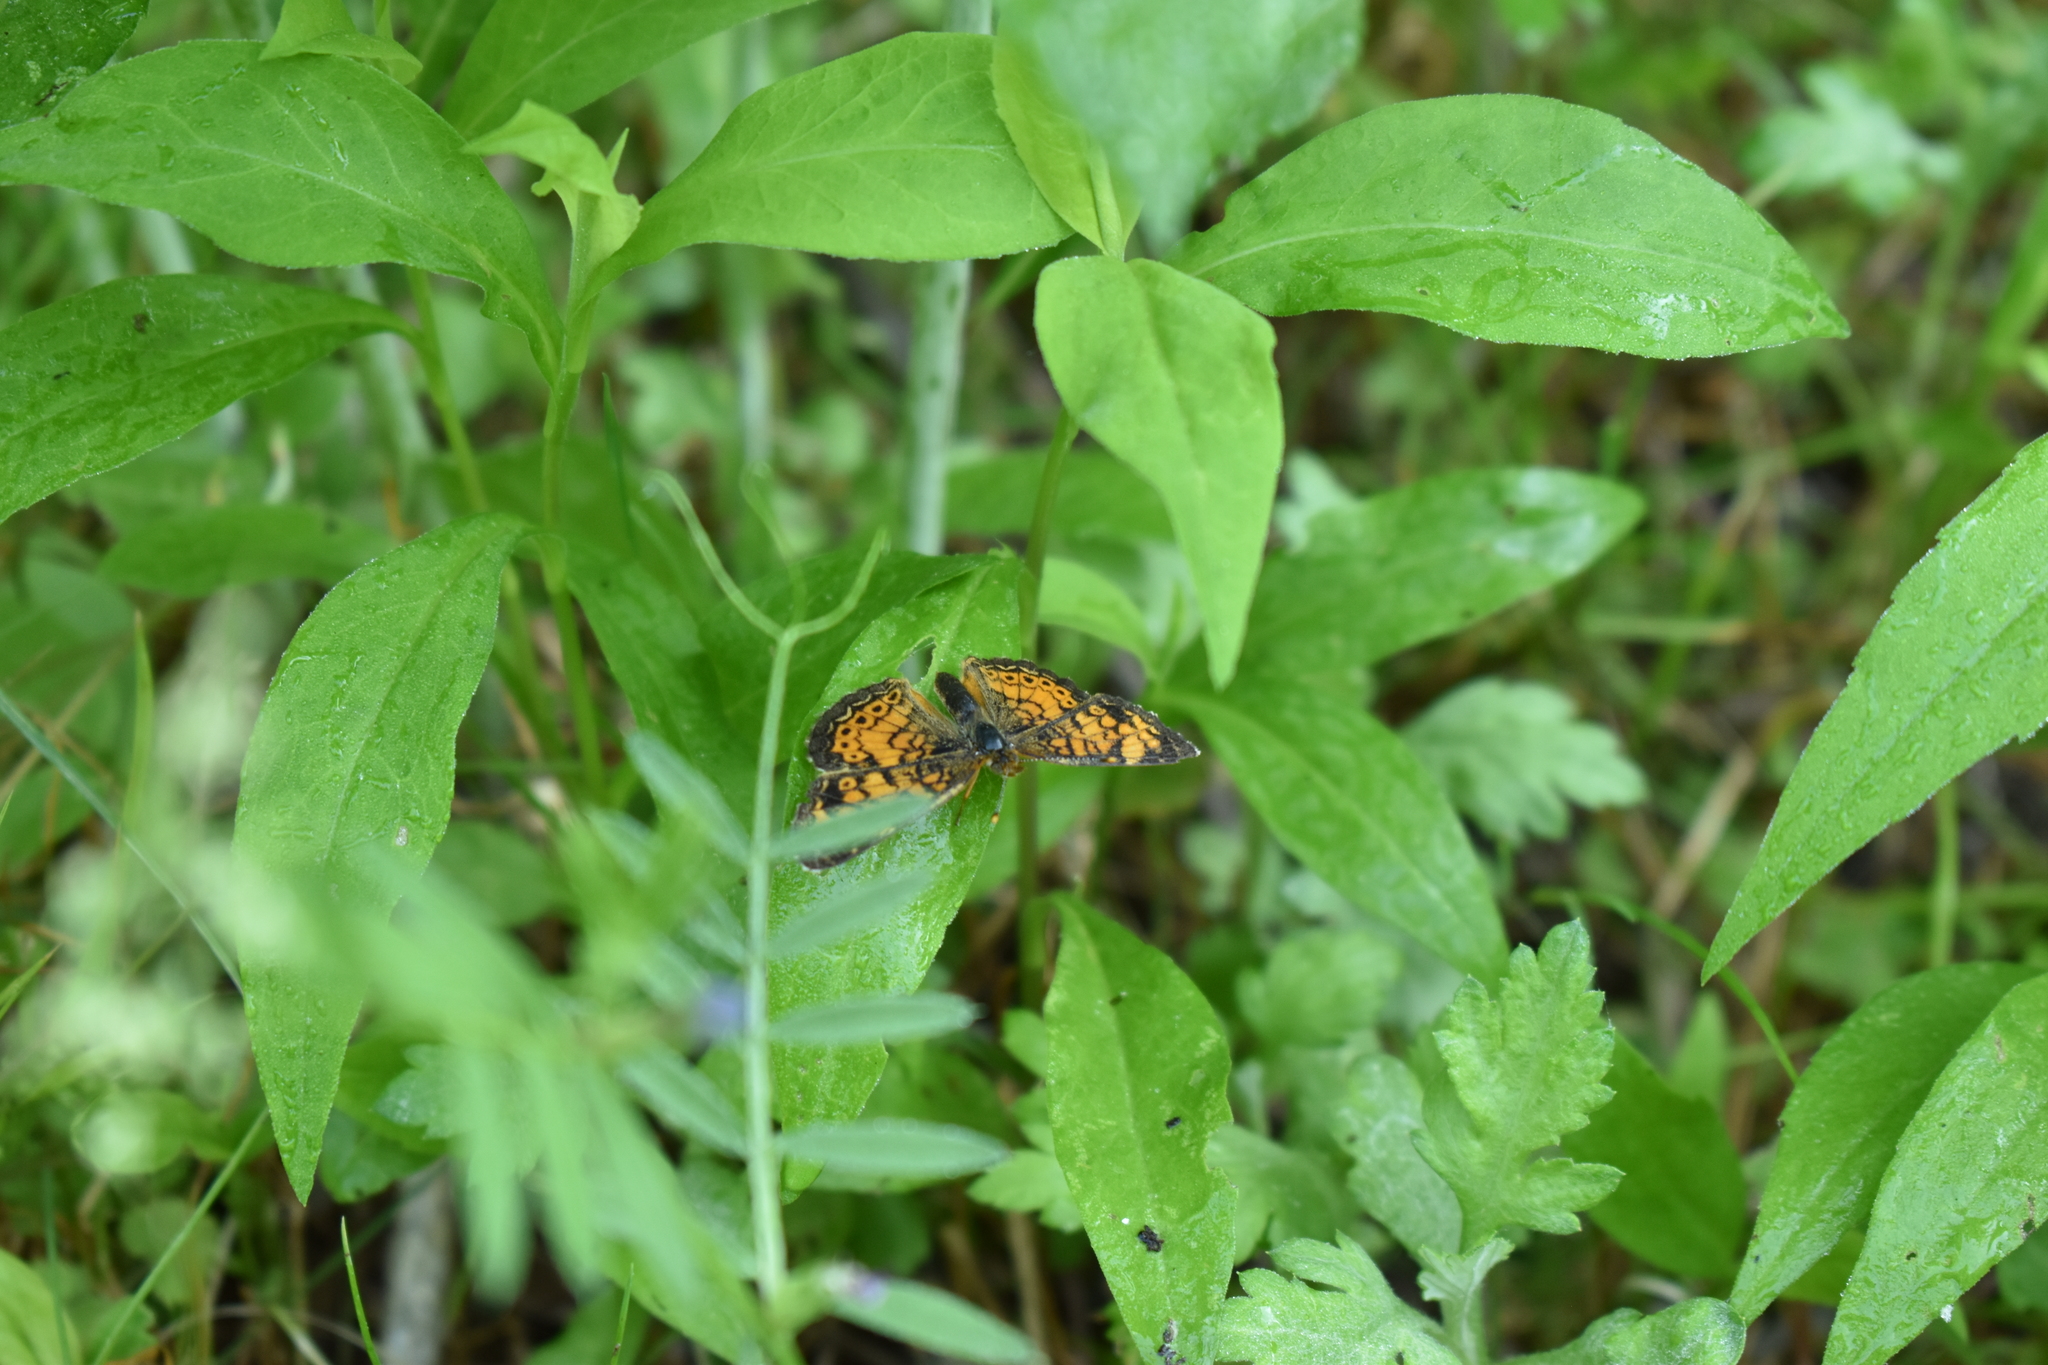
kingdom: Animalia
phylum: Arthropoda
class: Insecta
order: Lepidoptera
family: Nymphalidae
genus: Phyciodes
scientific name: Phyciodes tharos
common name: Pearl crescent
